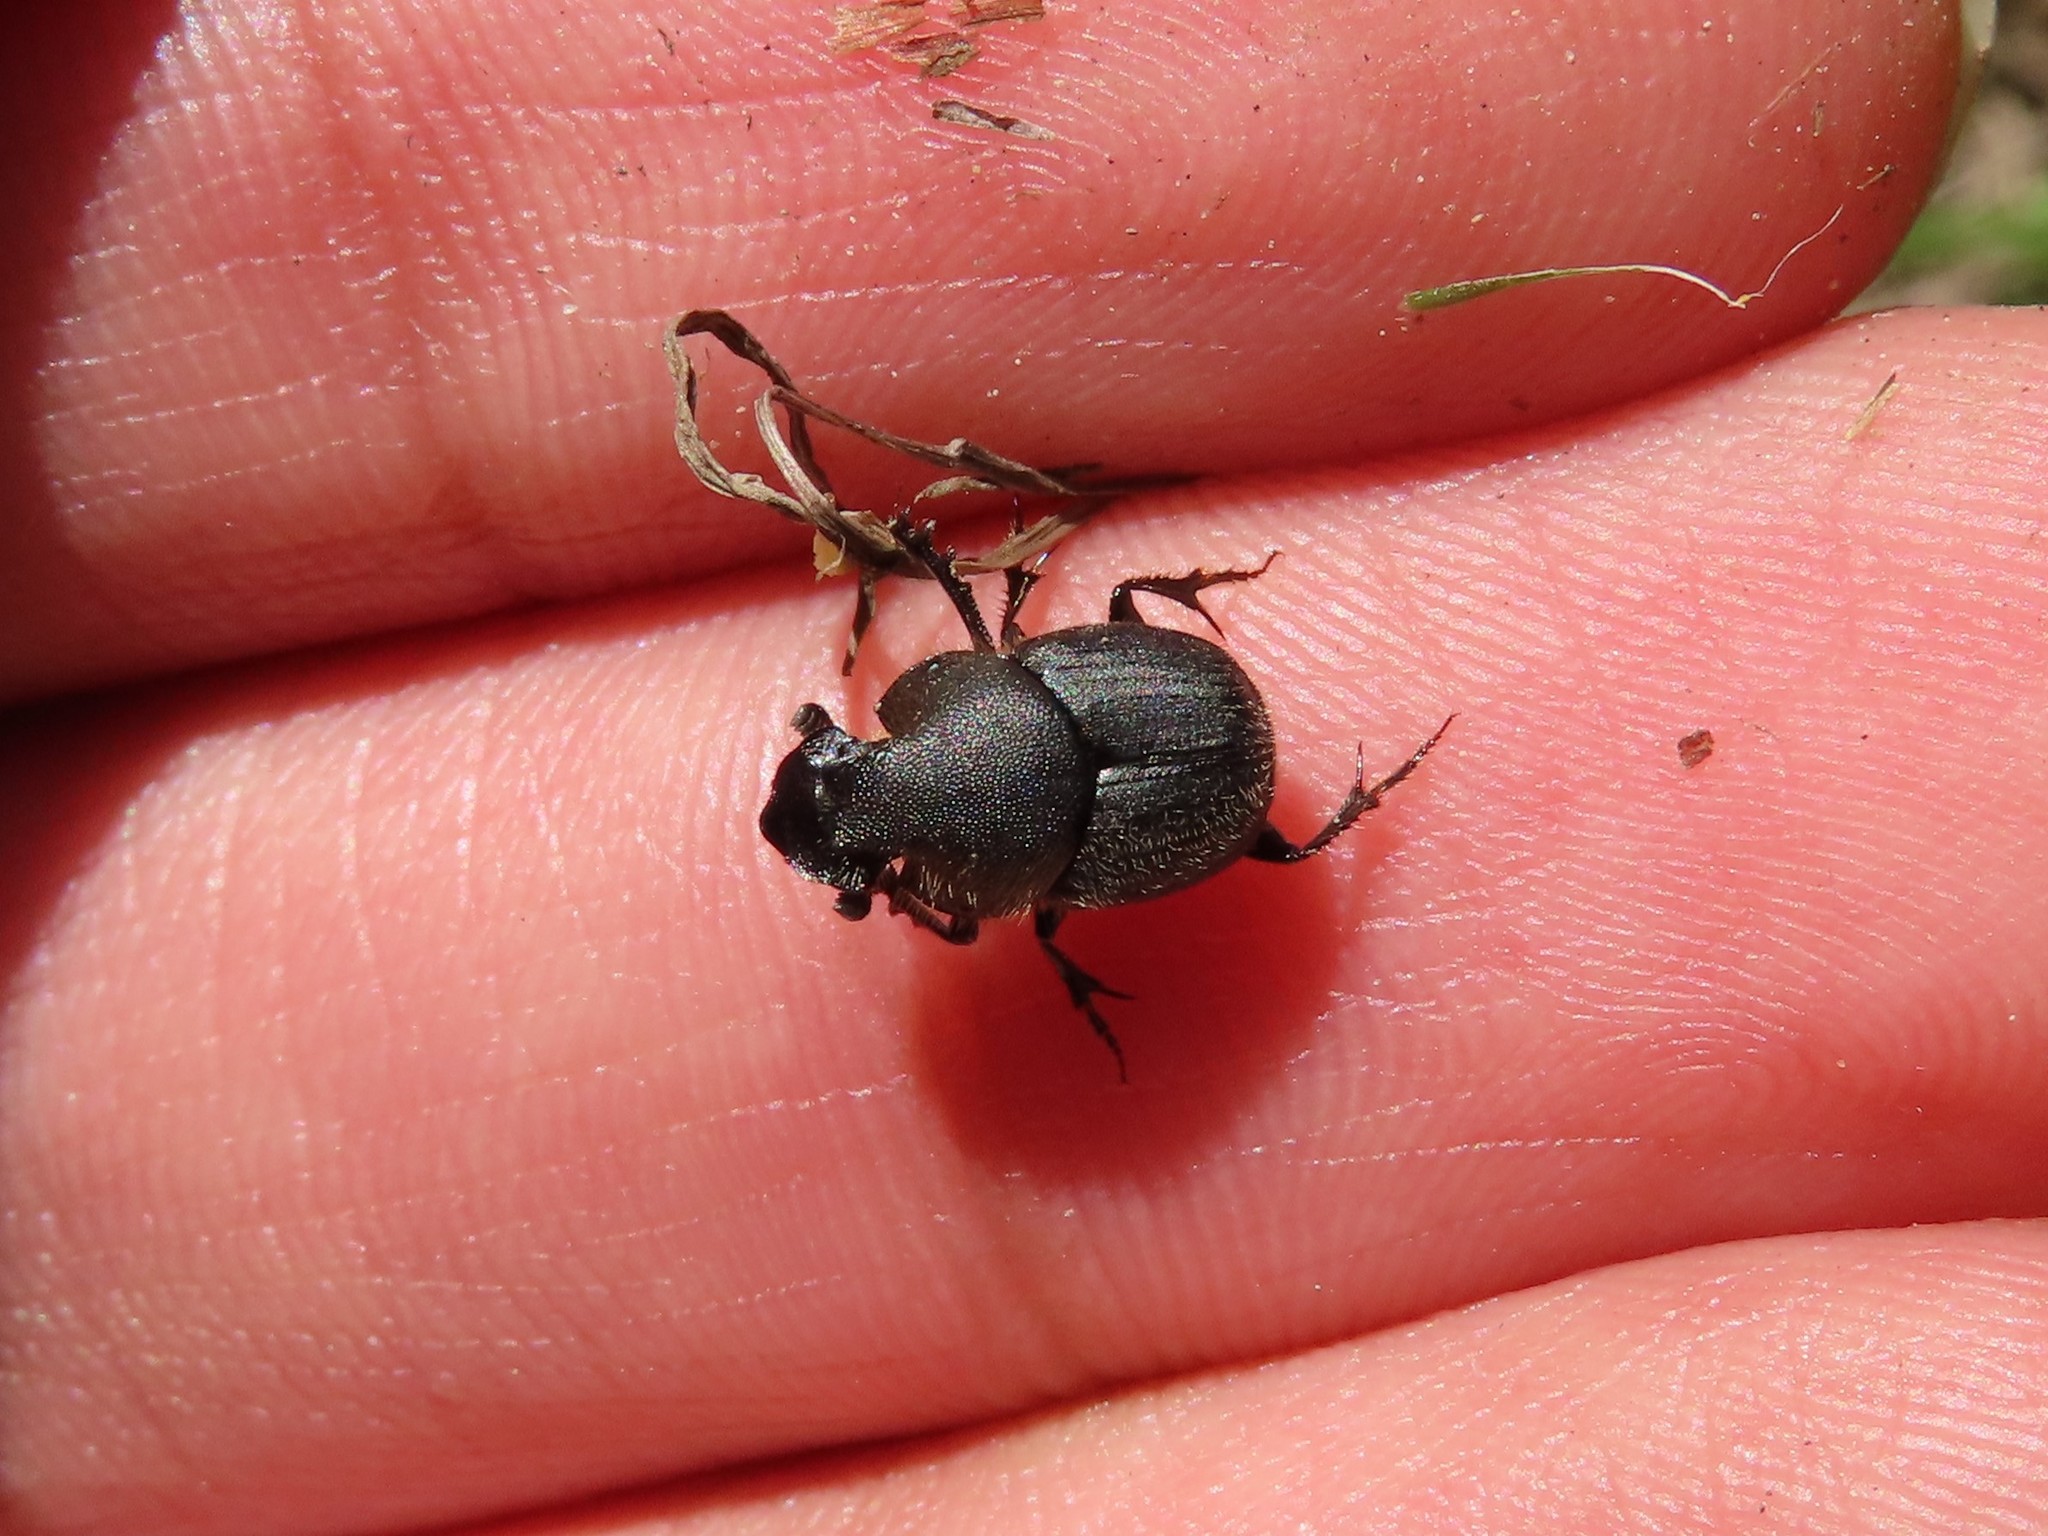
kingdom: Animalia
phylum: Arthropoda
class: Insecta
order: Coleoptera
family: Scarabaeidae
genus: Onthophagus
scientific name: Onthophagus hecate
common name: Scooped scarab
